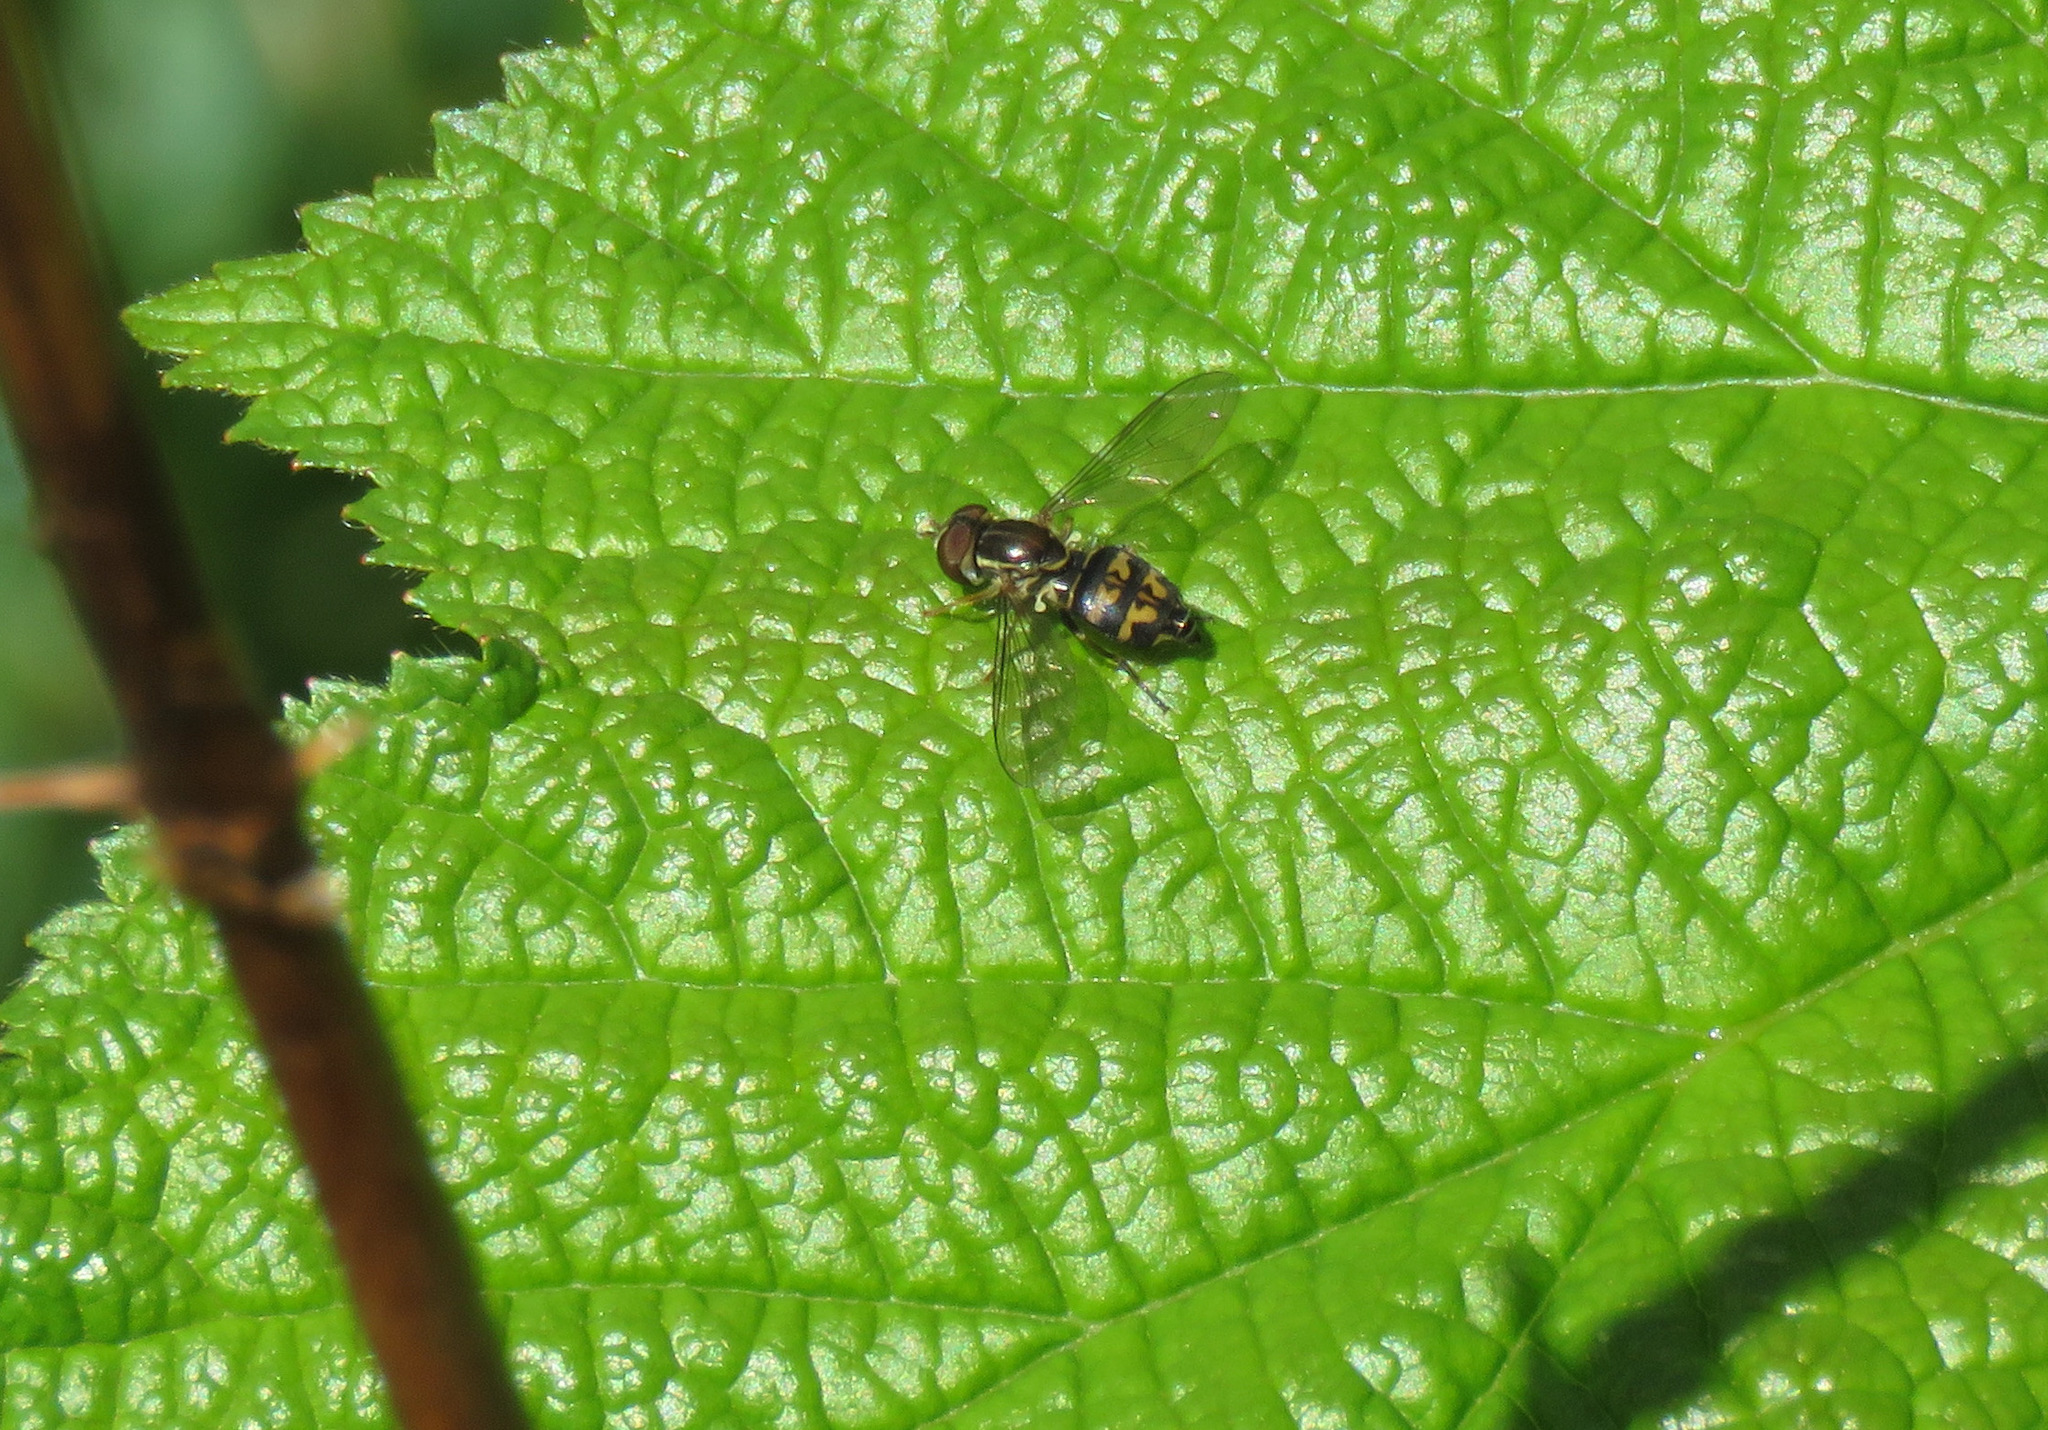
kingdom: Animalia
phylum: Arthropoda
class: Insecta
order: Diptera
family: Syrphidae
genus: Toxomerus
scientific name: Toxomerus occidentalis
